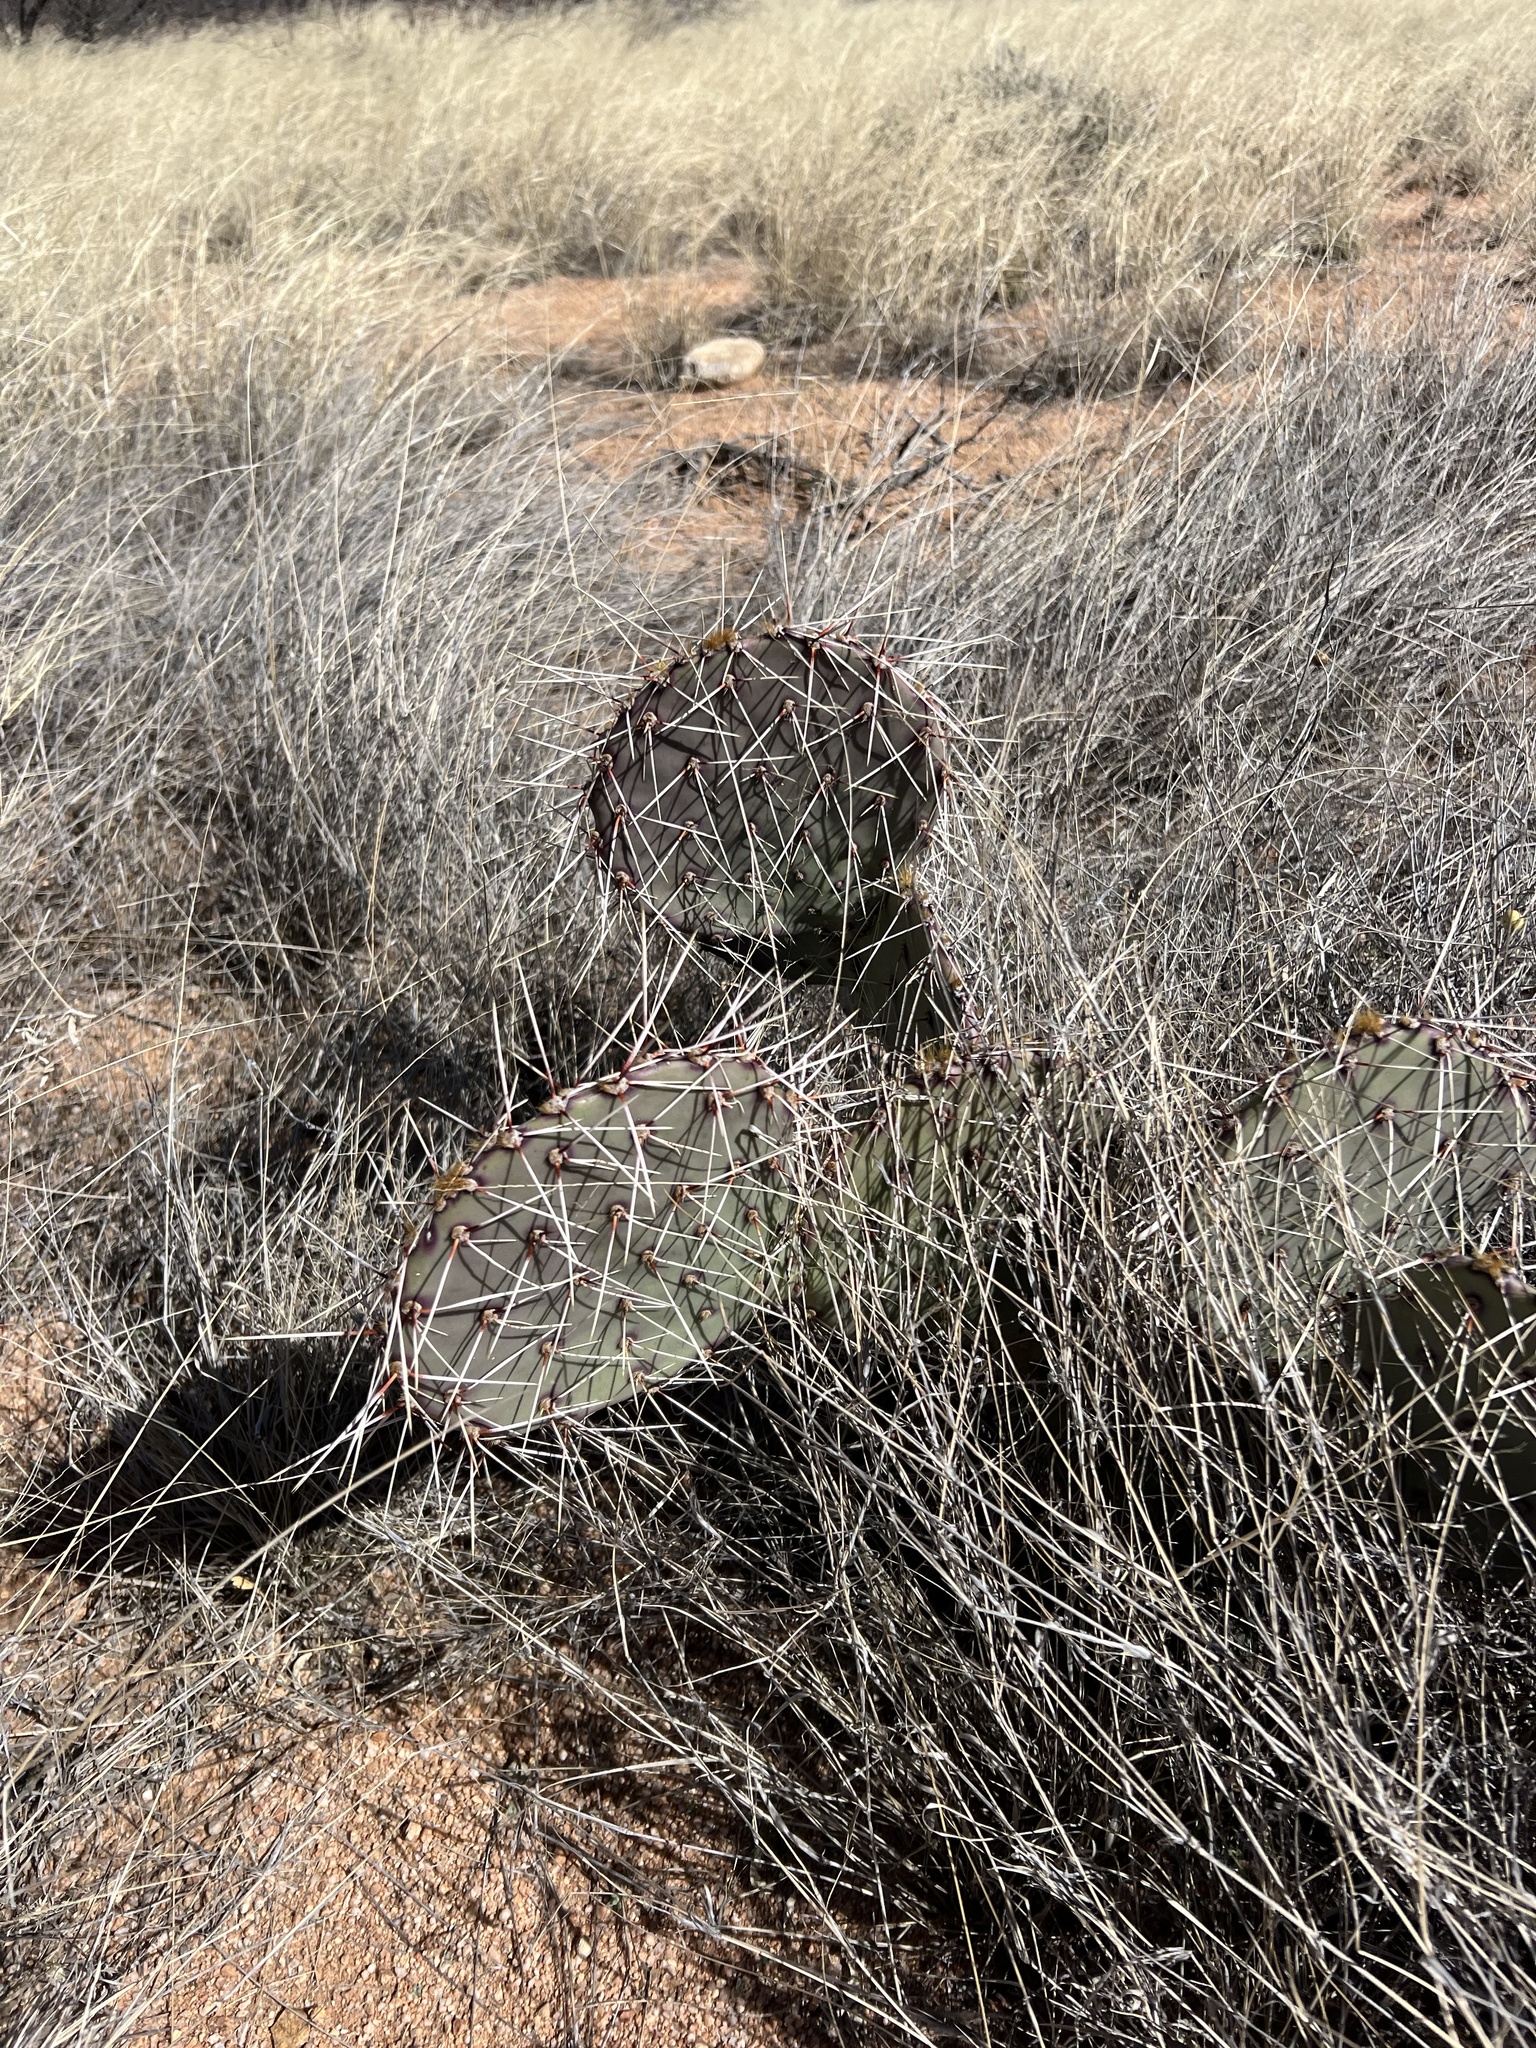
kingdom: Plantae
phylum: Tracheophyta
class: Magnoliopsida
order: Caryophyllales
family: Cactaceae
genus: Opuntia
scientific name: Opuntia macrorhiza
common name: Grassland pricklypear
